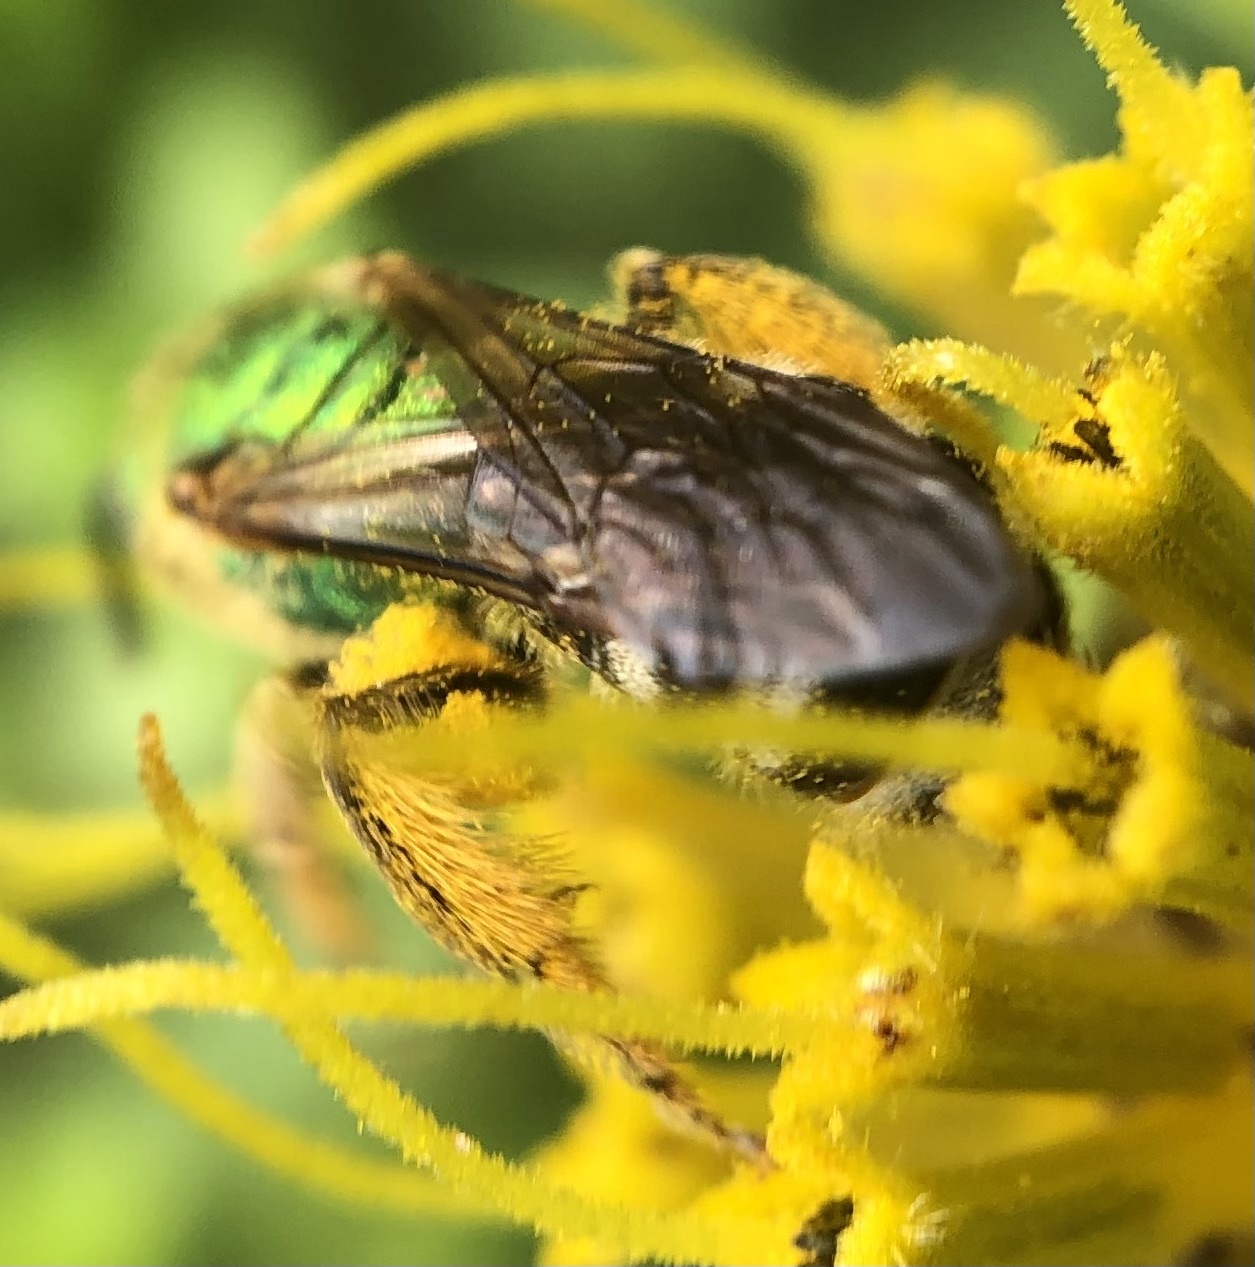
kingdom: Animalia
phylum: Arthropoda
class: Insecta
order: Hymenoptera
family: Halictidae
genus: Agapostemon
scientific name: Agapostemon virescens
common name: Bicolored striped sweat bee
